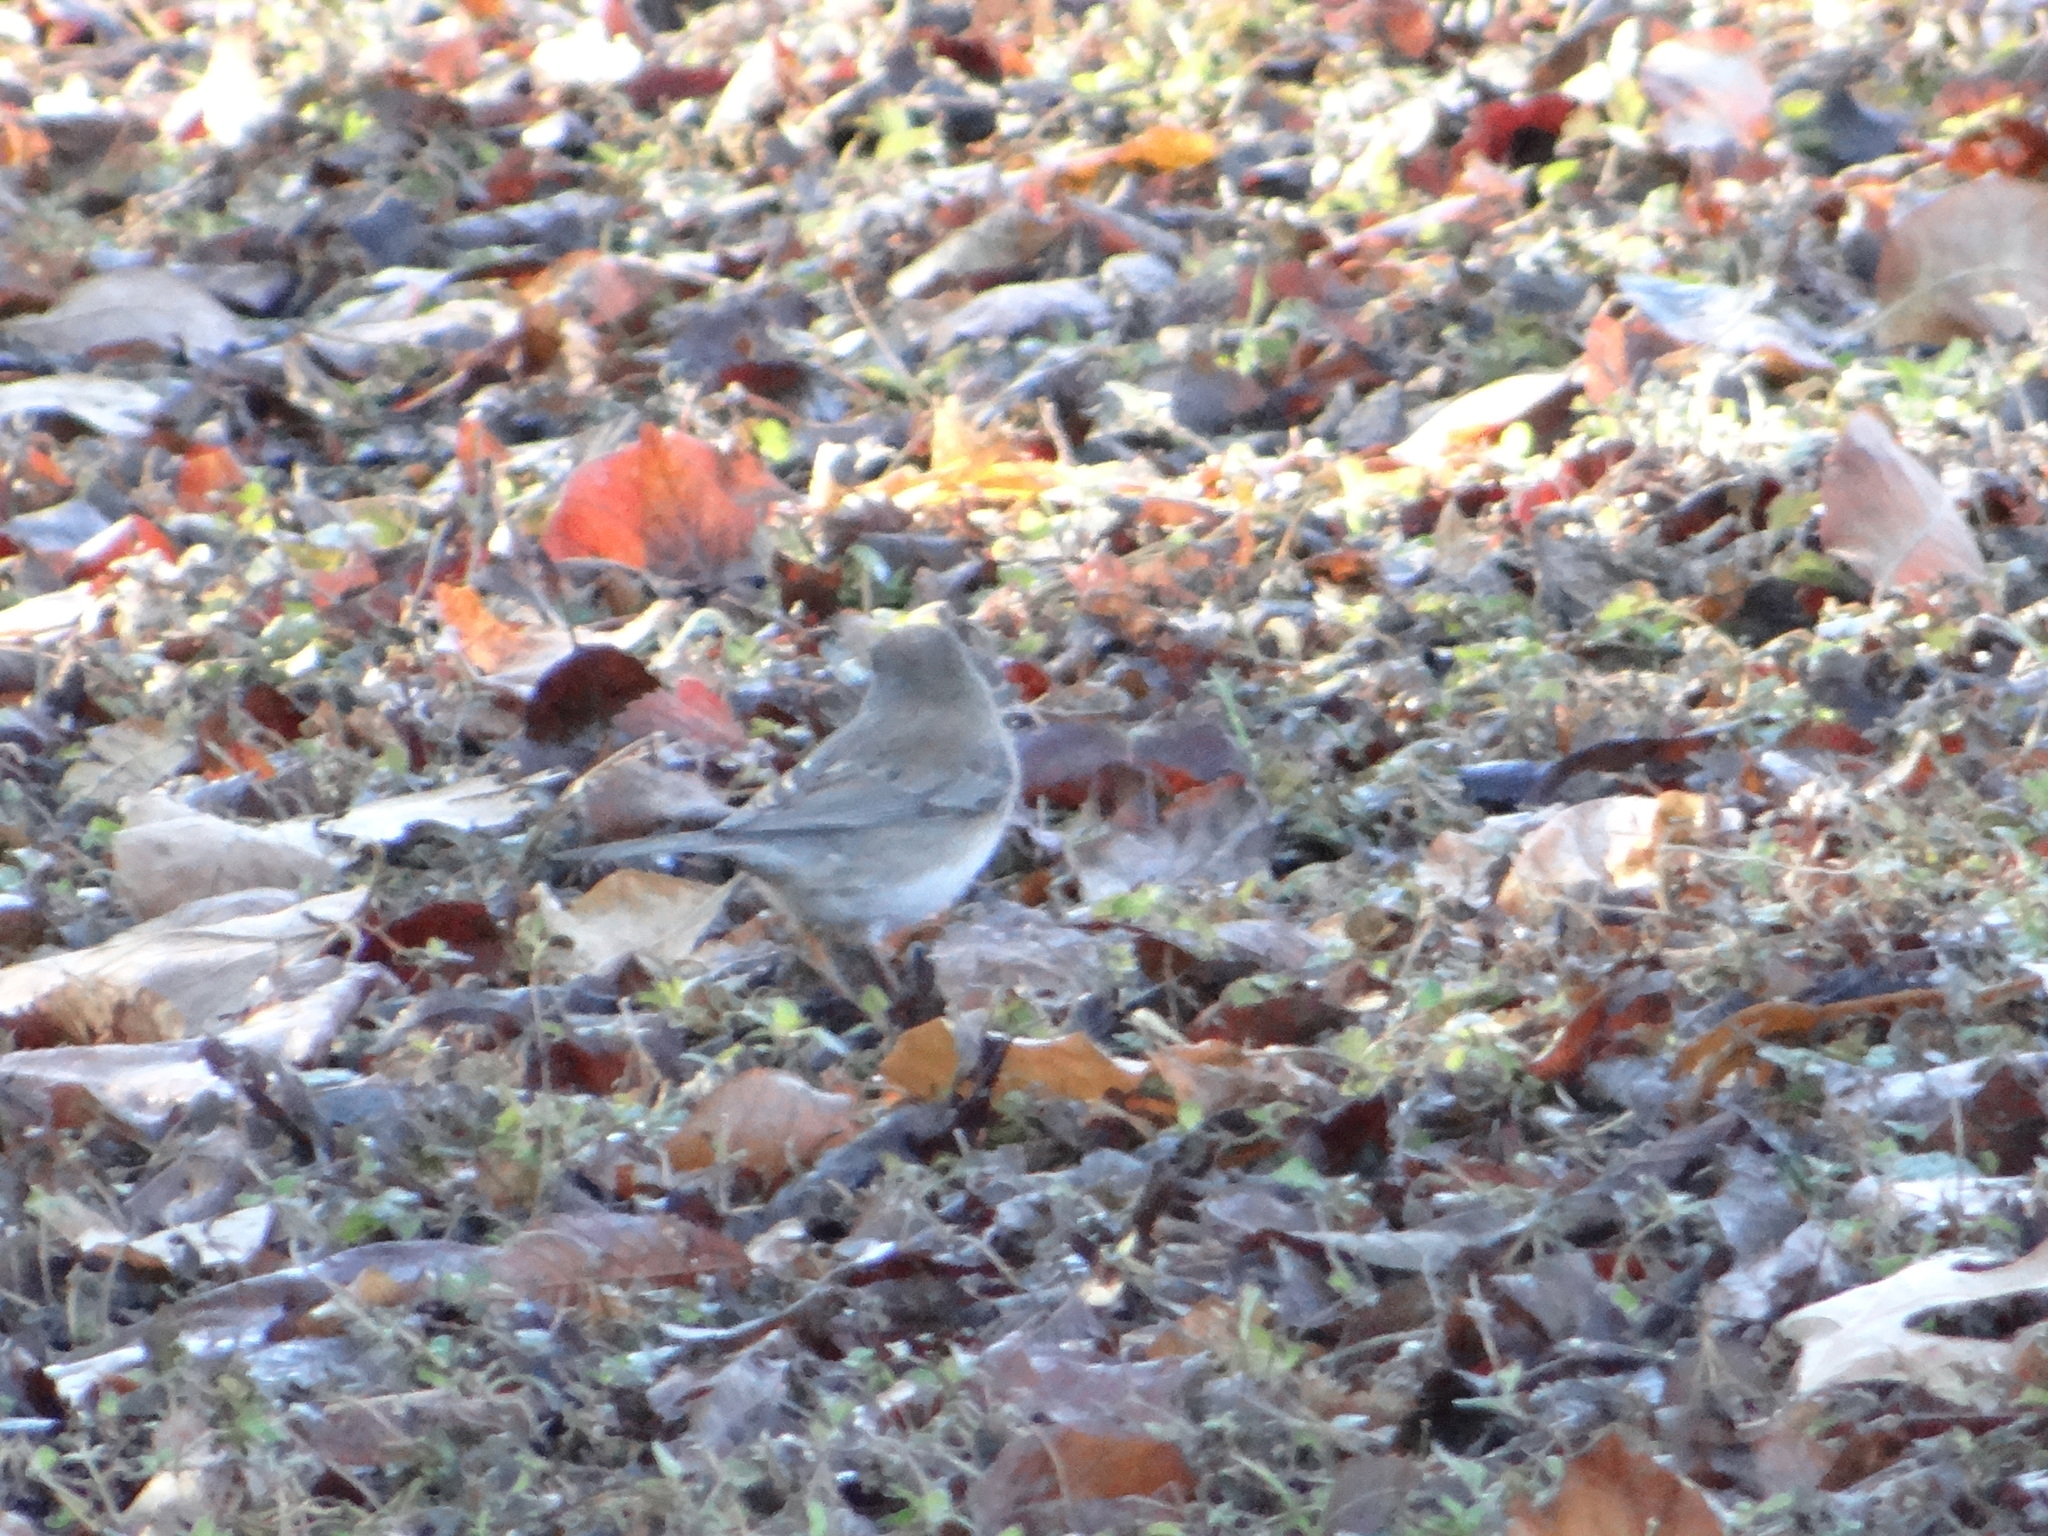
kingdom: Animalia
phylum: Chordata
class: Aves
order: Passeriformes
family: Passerellidae
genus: Junco
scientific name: Junco hyemalis
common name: Dark-eyed junco
